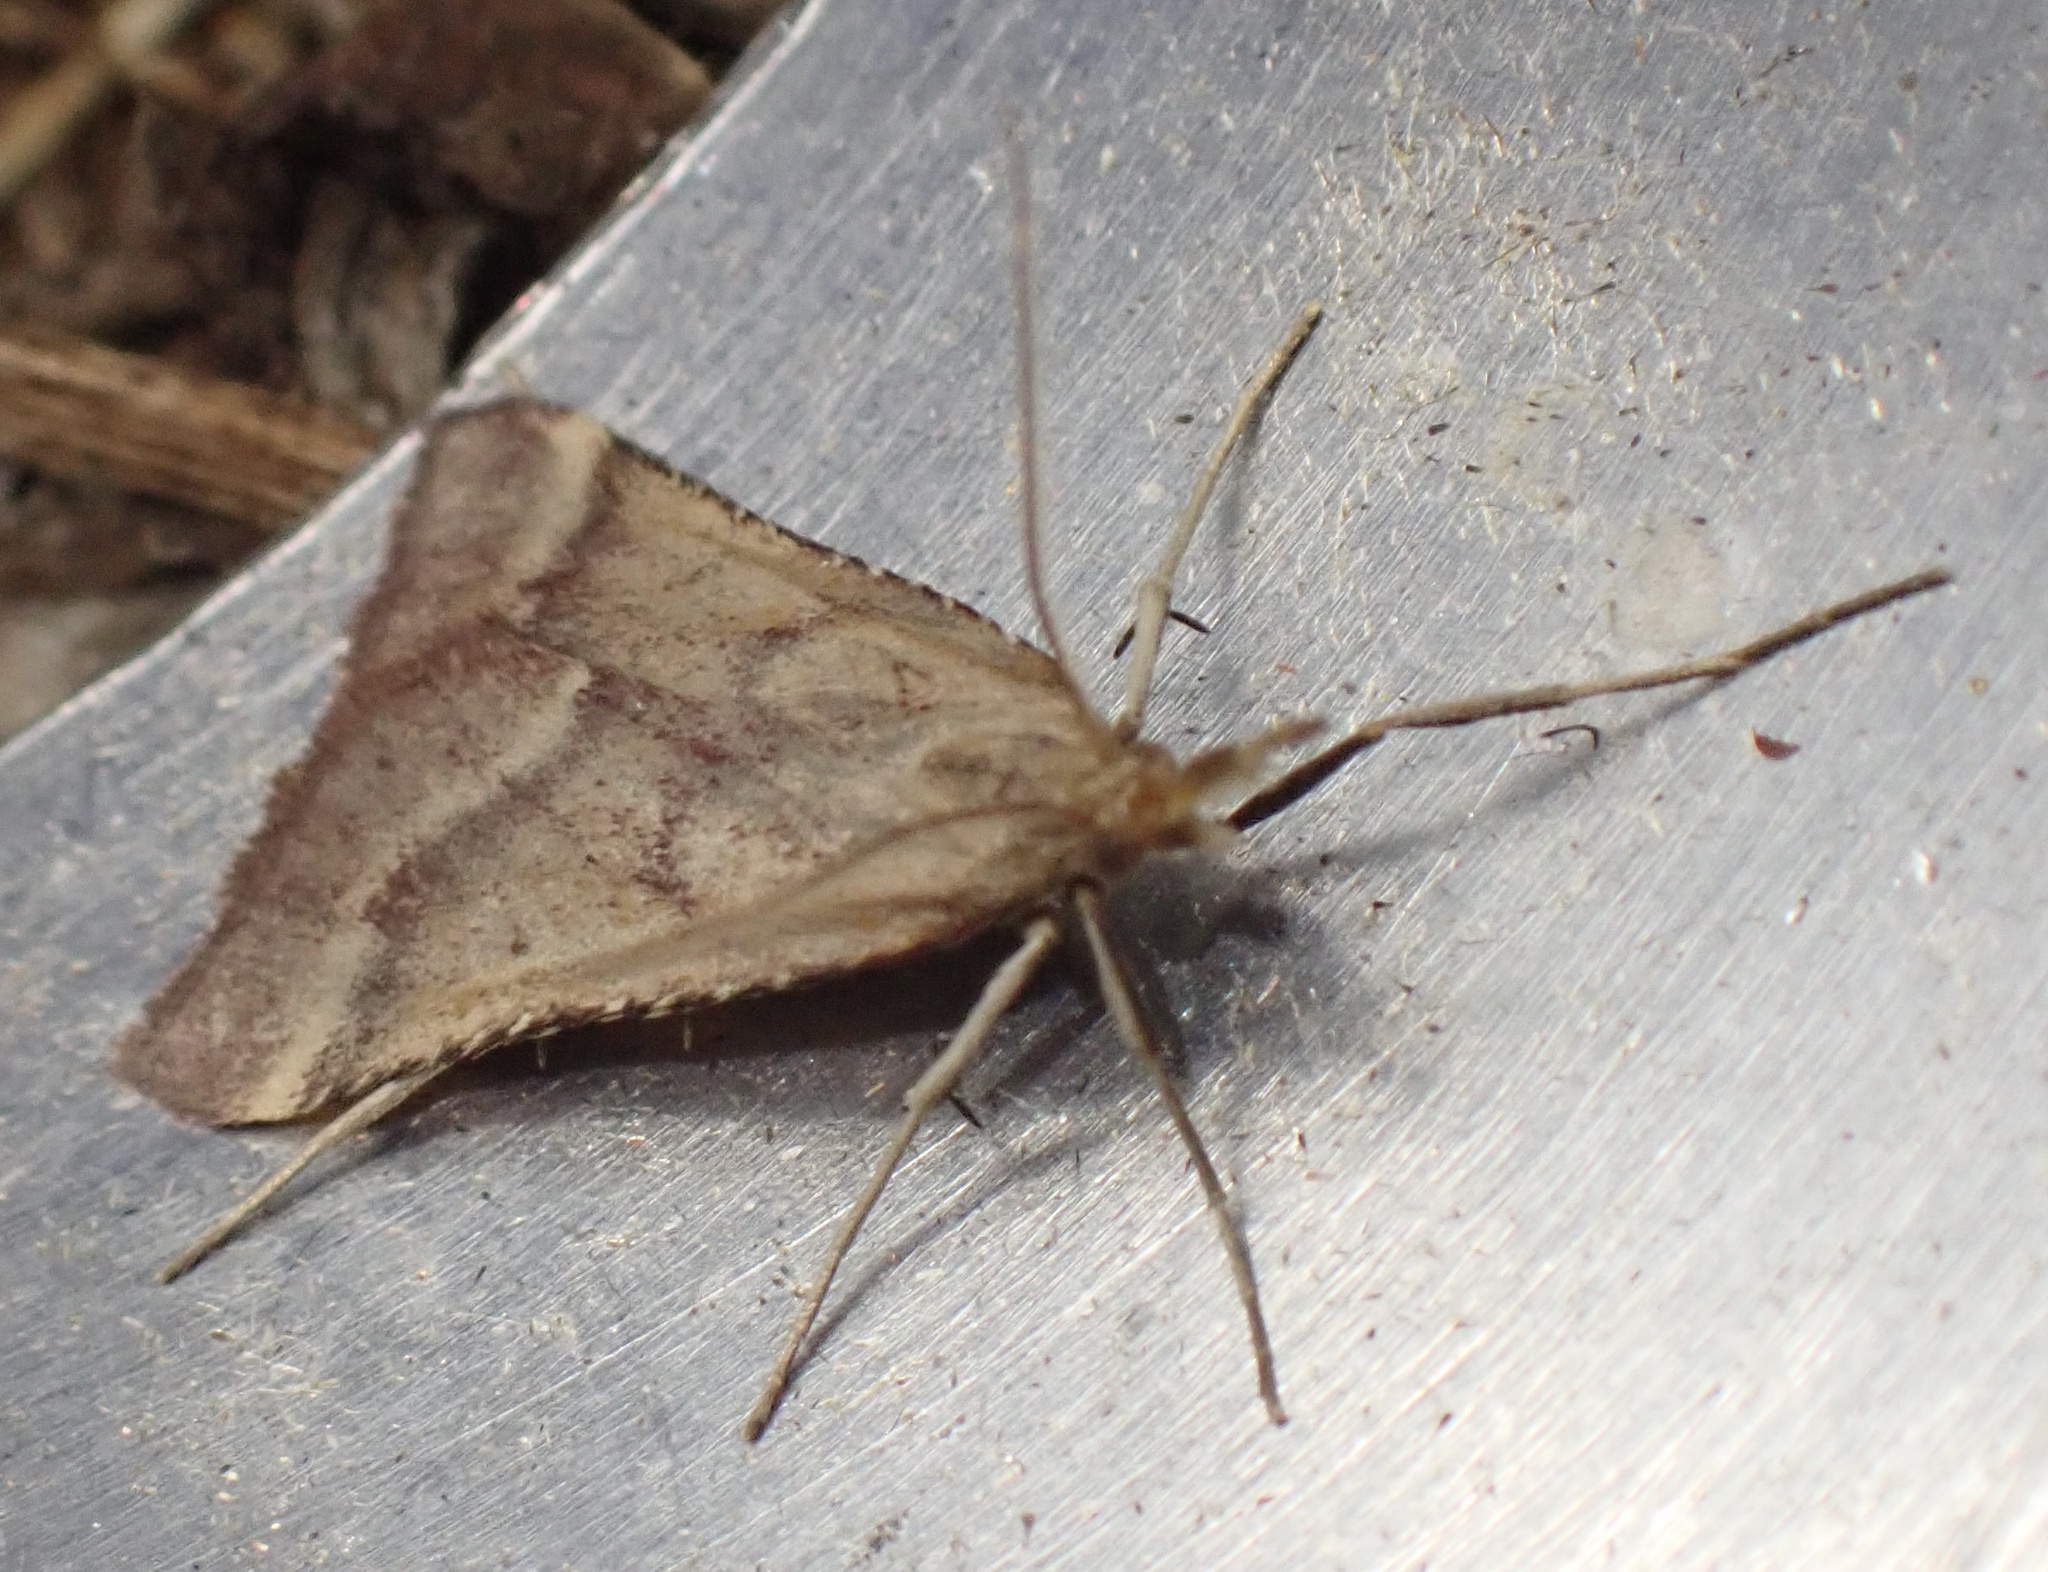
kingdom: Animalia
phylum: Arthropoda
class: Insecta
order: Lepidoptera
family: Pyralidae
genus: Synaphe
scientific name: Synaphe punctalis
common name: Long-legged tabby
